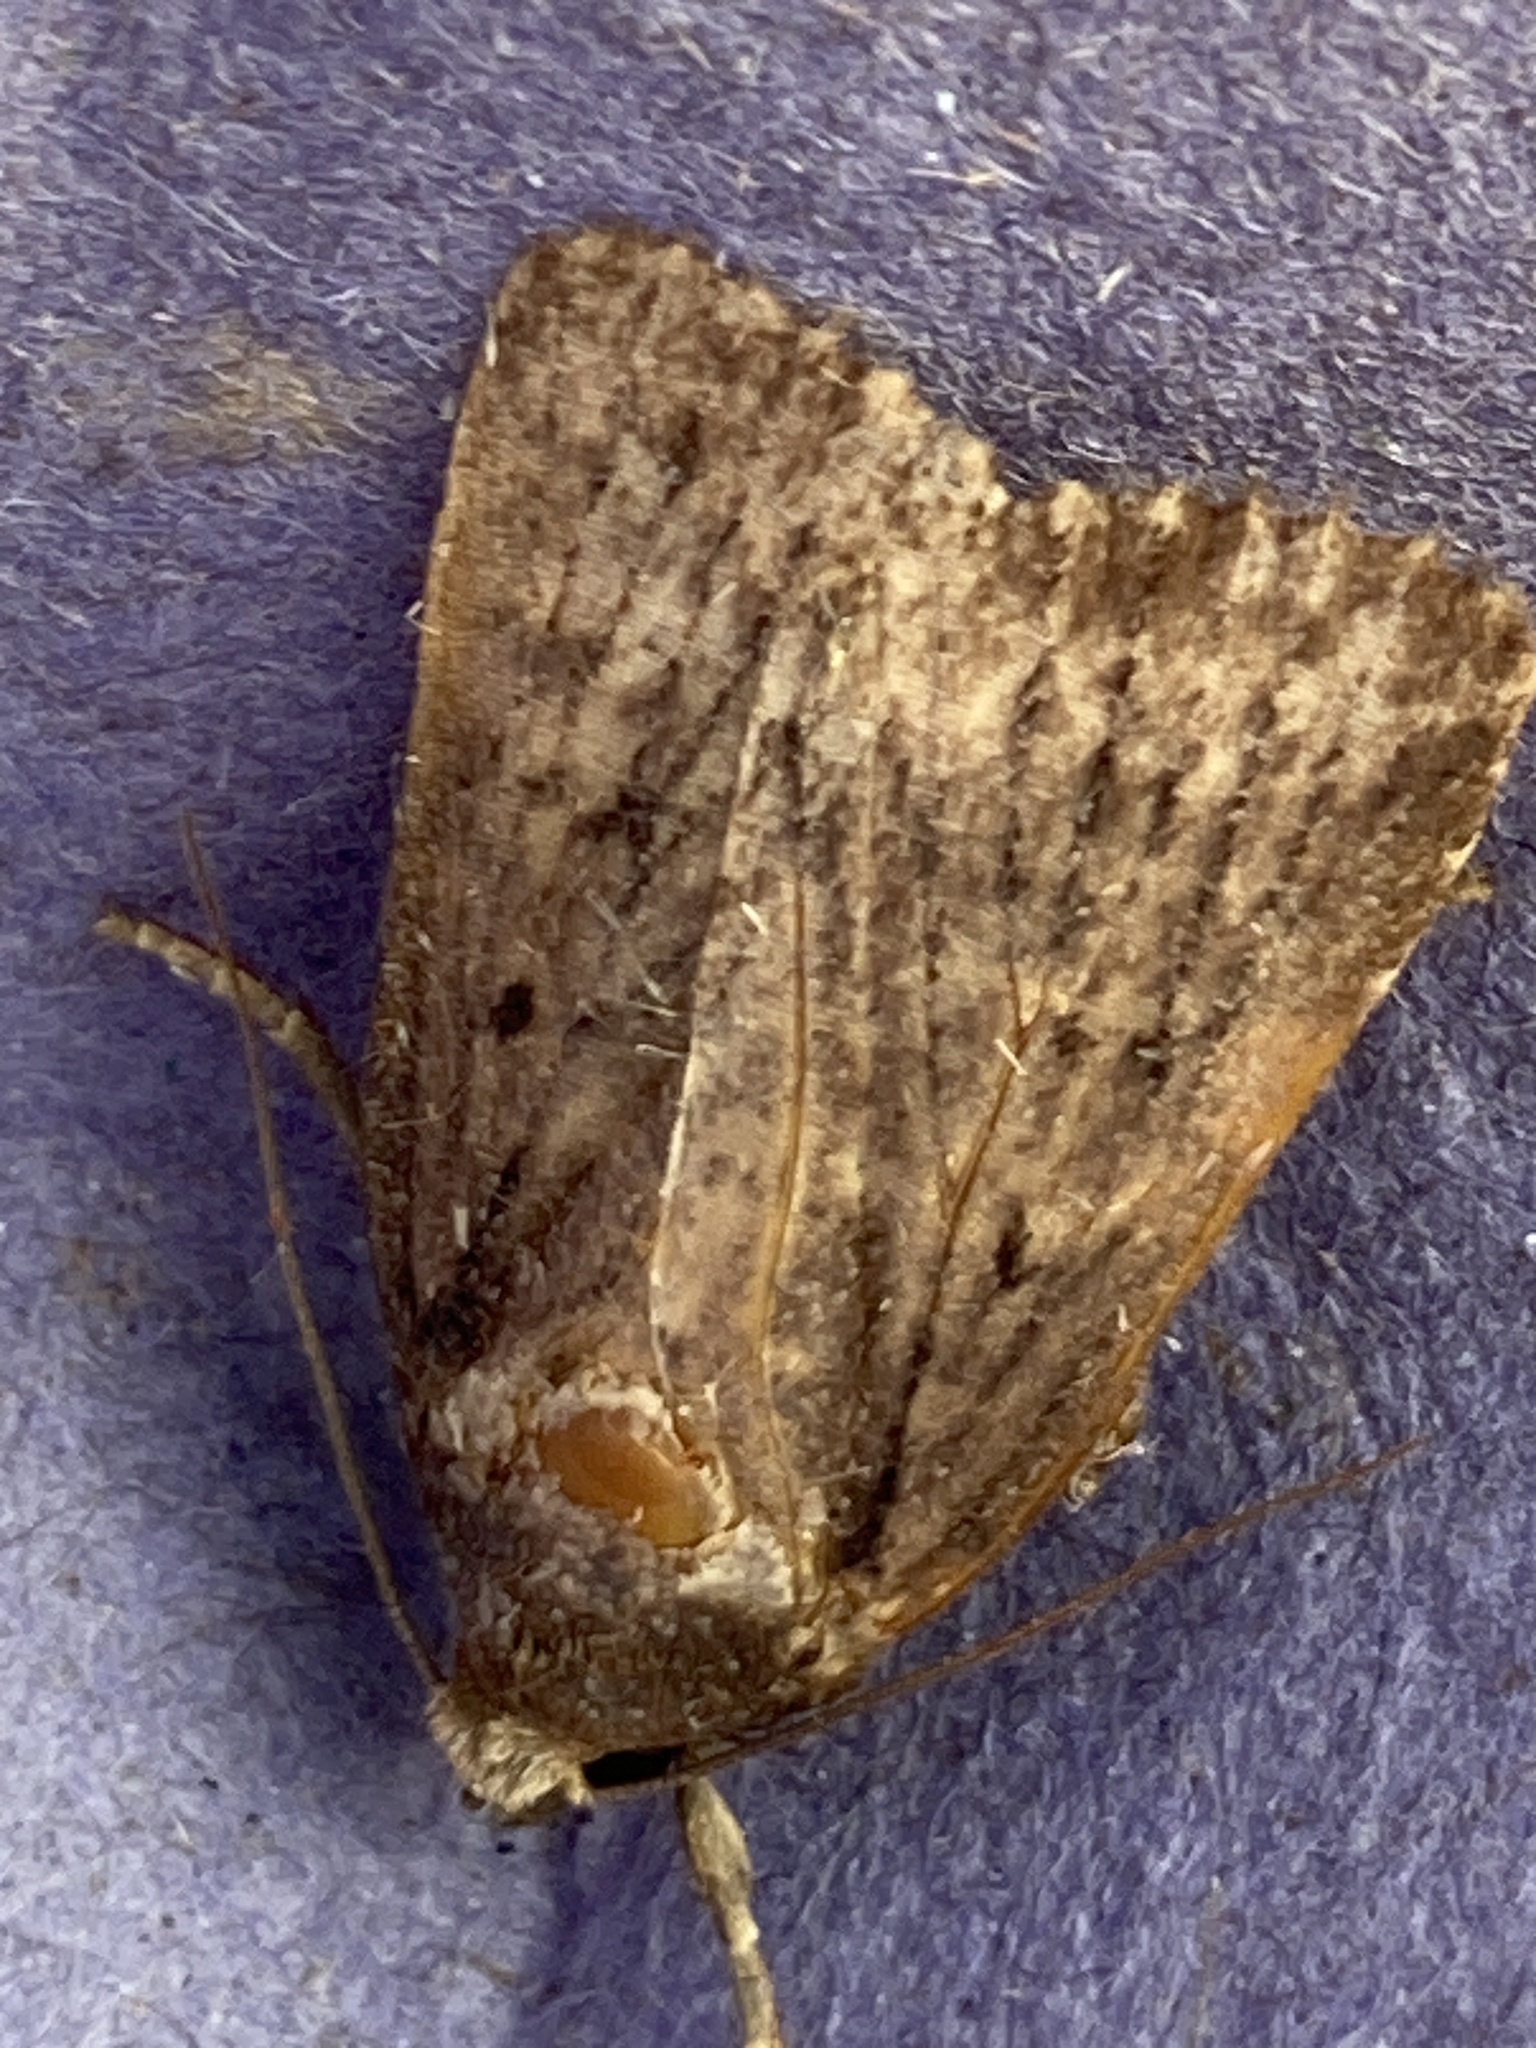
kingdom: Animalia
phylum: Arthropoda
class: Insecta
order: Lepidoptera
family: Noctuidae
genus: Amphipyra
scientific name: Amphipyra tragopoginis
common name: Mouse moth
